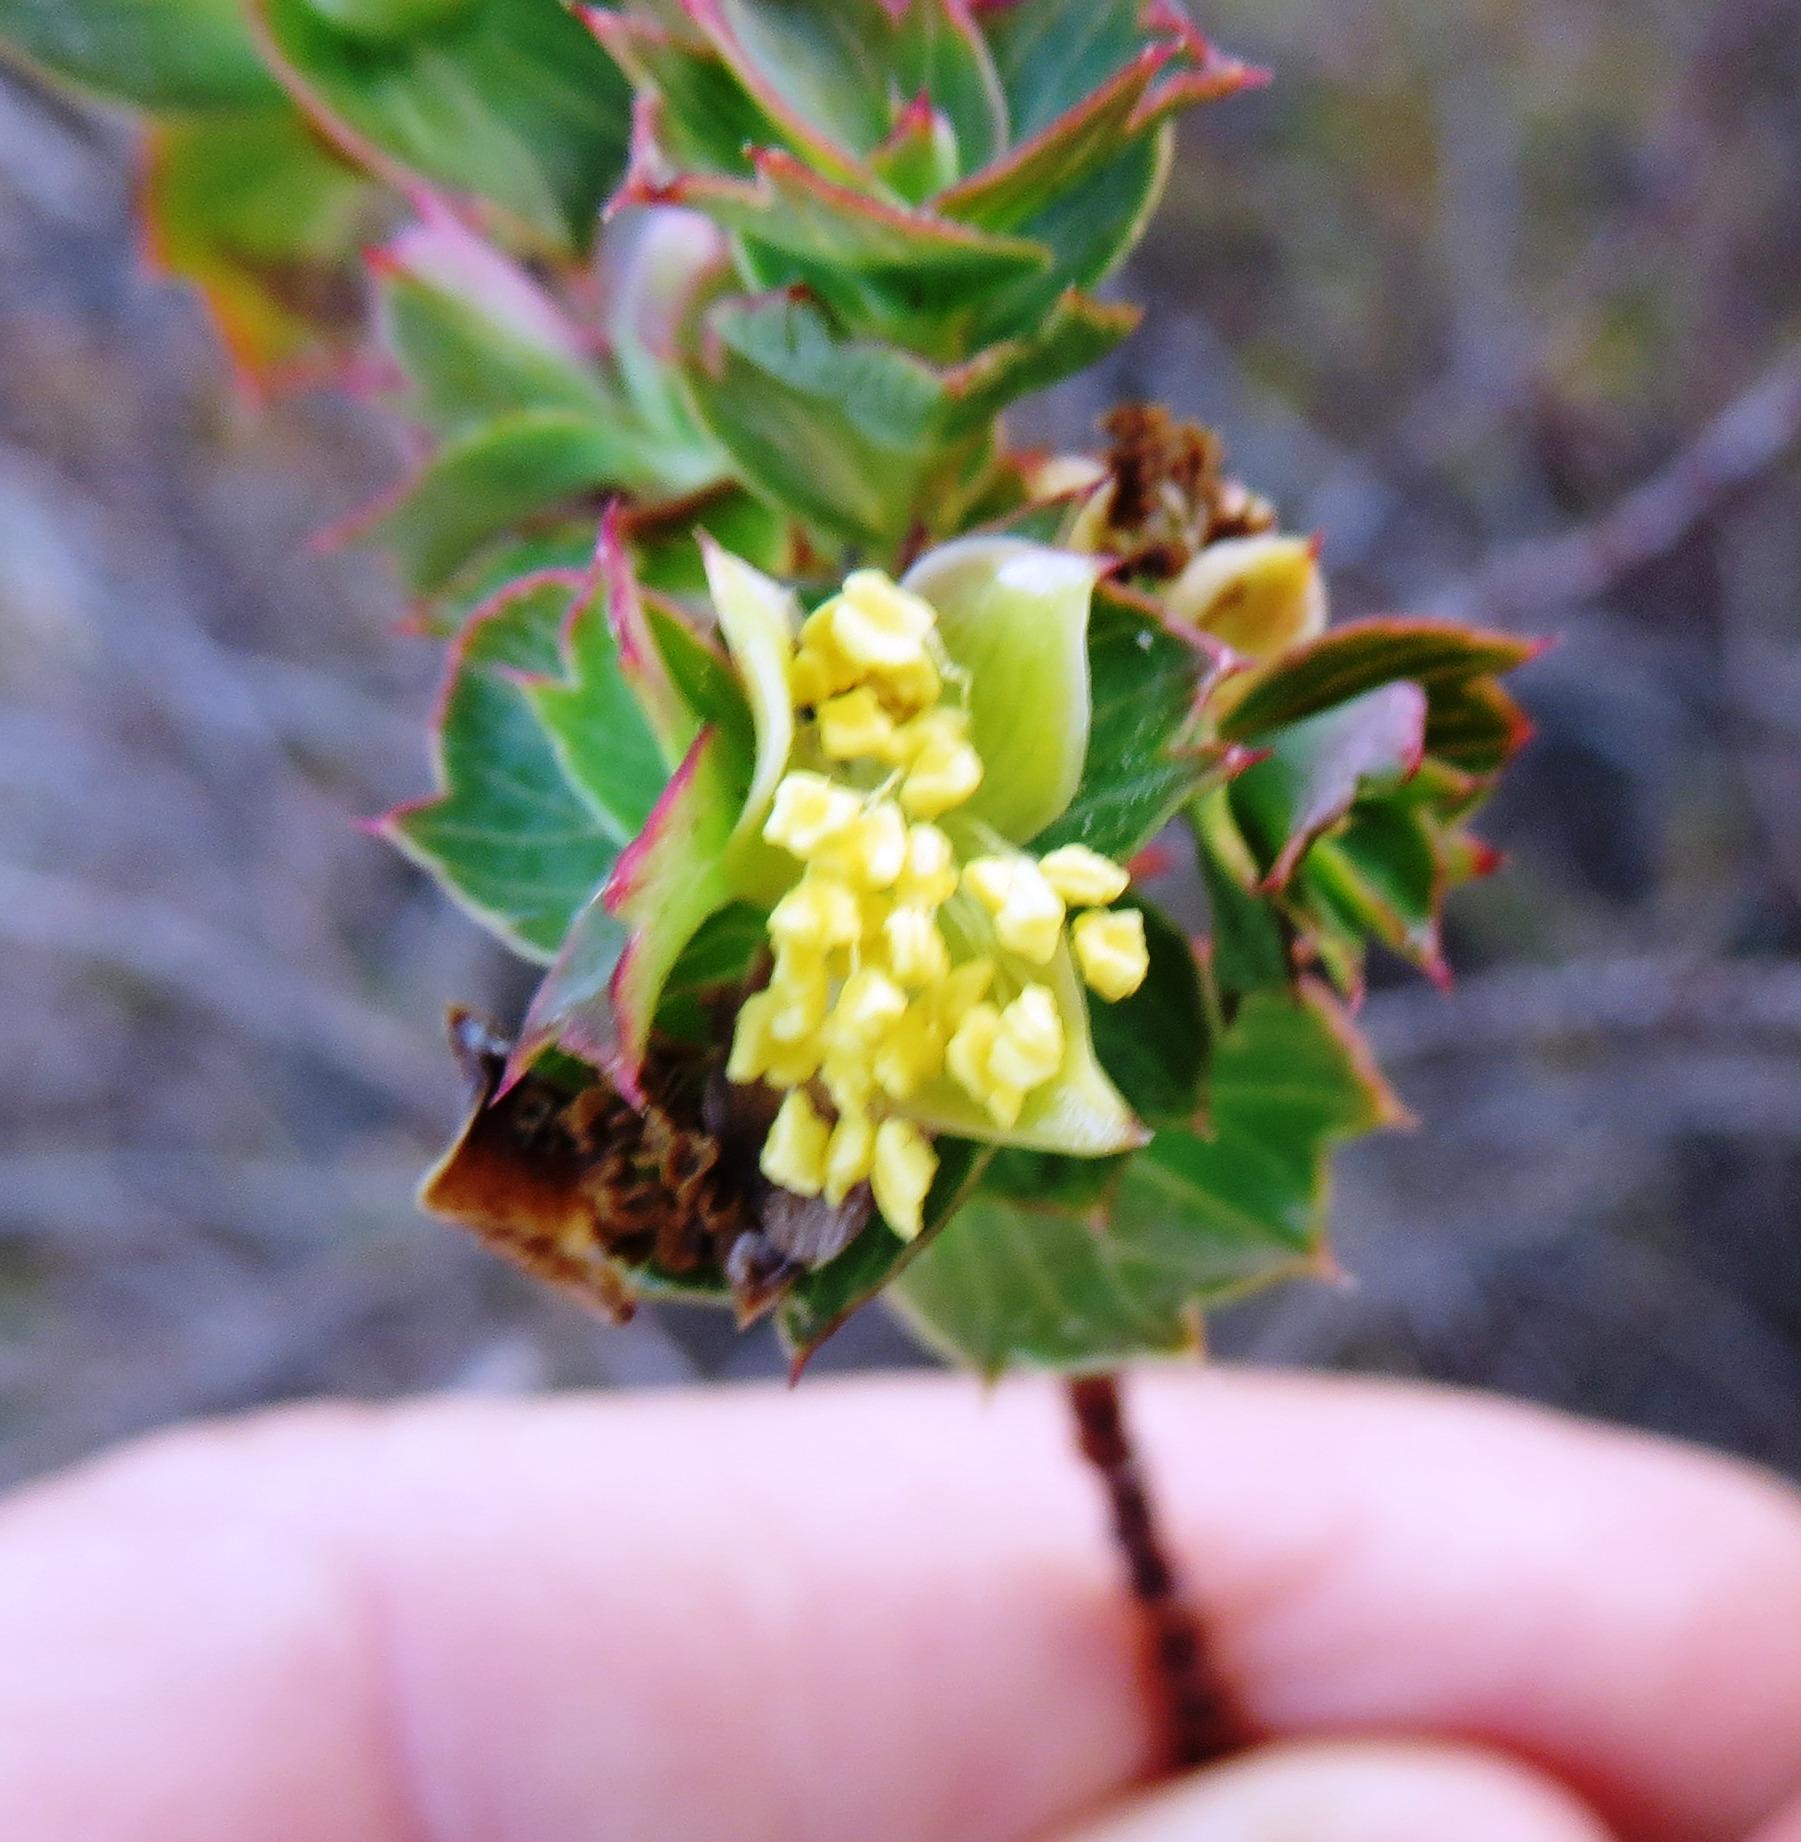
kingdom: Plantae
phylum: Tracheophyta
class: Magnoliopsida
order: Rosales
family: Rosaceae
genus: Cliffortia
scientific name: Cliffortia schlechteri
